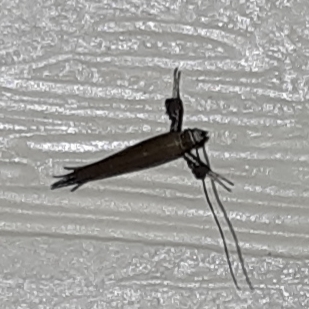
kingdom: Animalia
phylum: Arthropoda
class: Insecta
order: Lepidoptera
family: Gracillariidae
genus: Caloptilia
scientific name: Caloptilia
